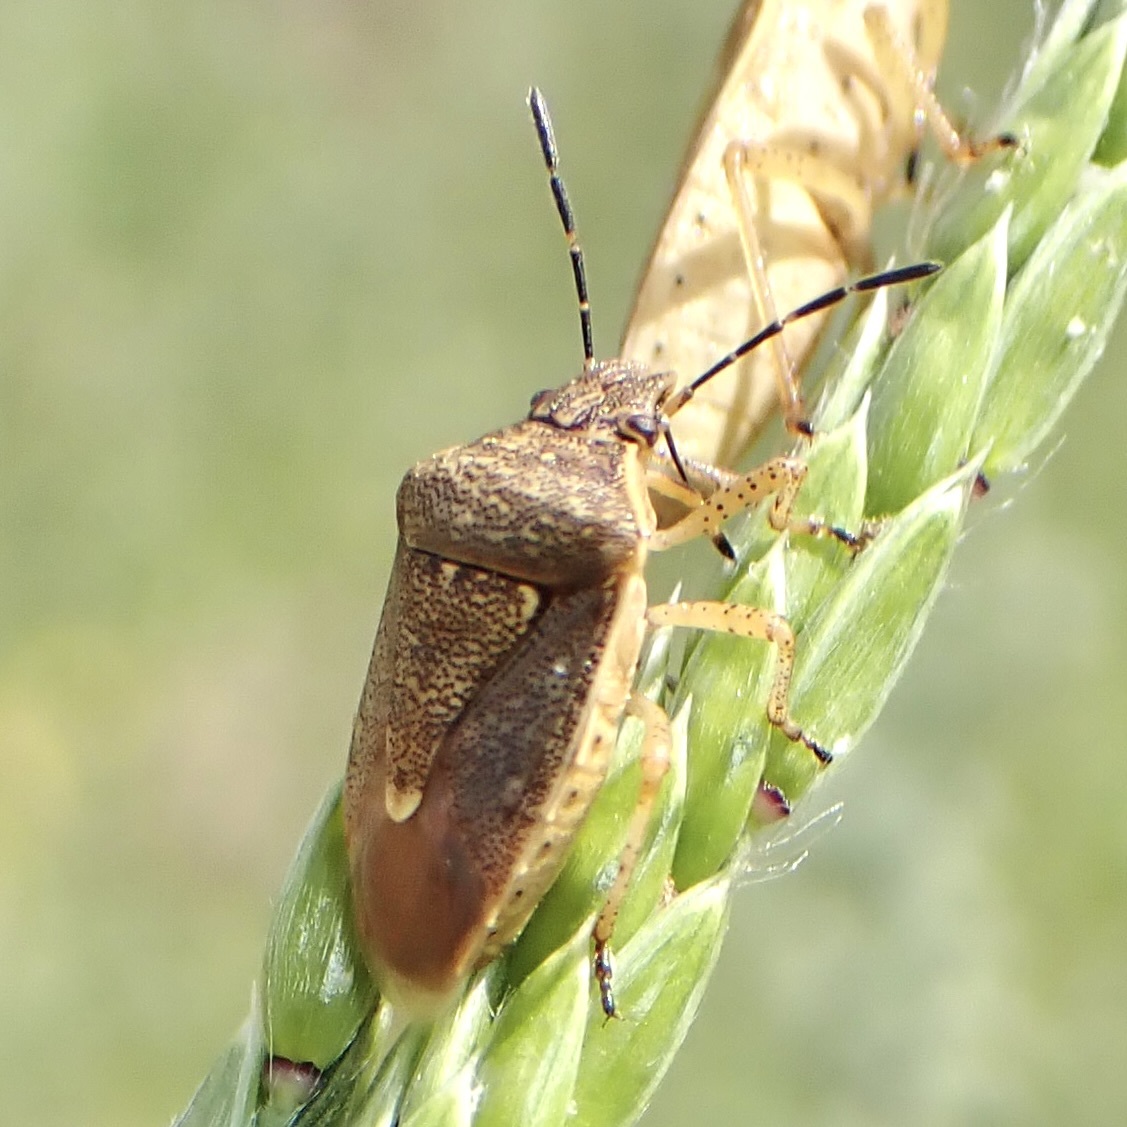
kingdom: Animalia
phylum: Arthropoda
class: Insecta
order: Hemiptera
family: Pentatomidae
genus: Moromorpha
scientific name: Moromorpha tetra
